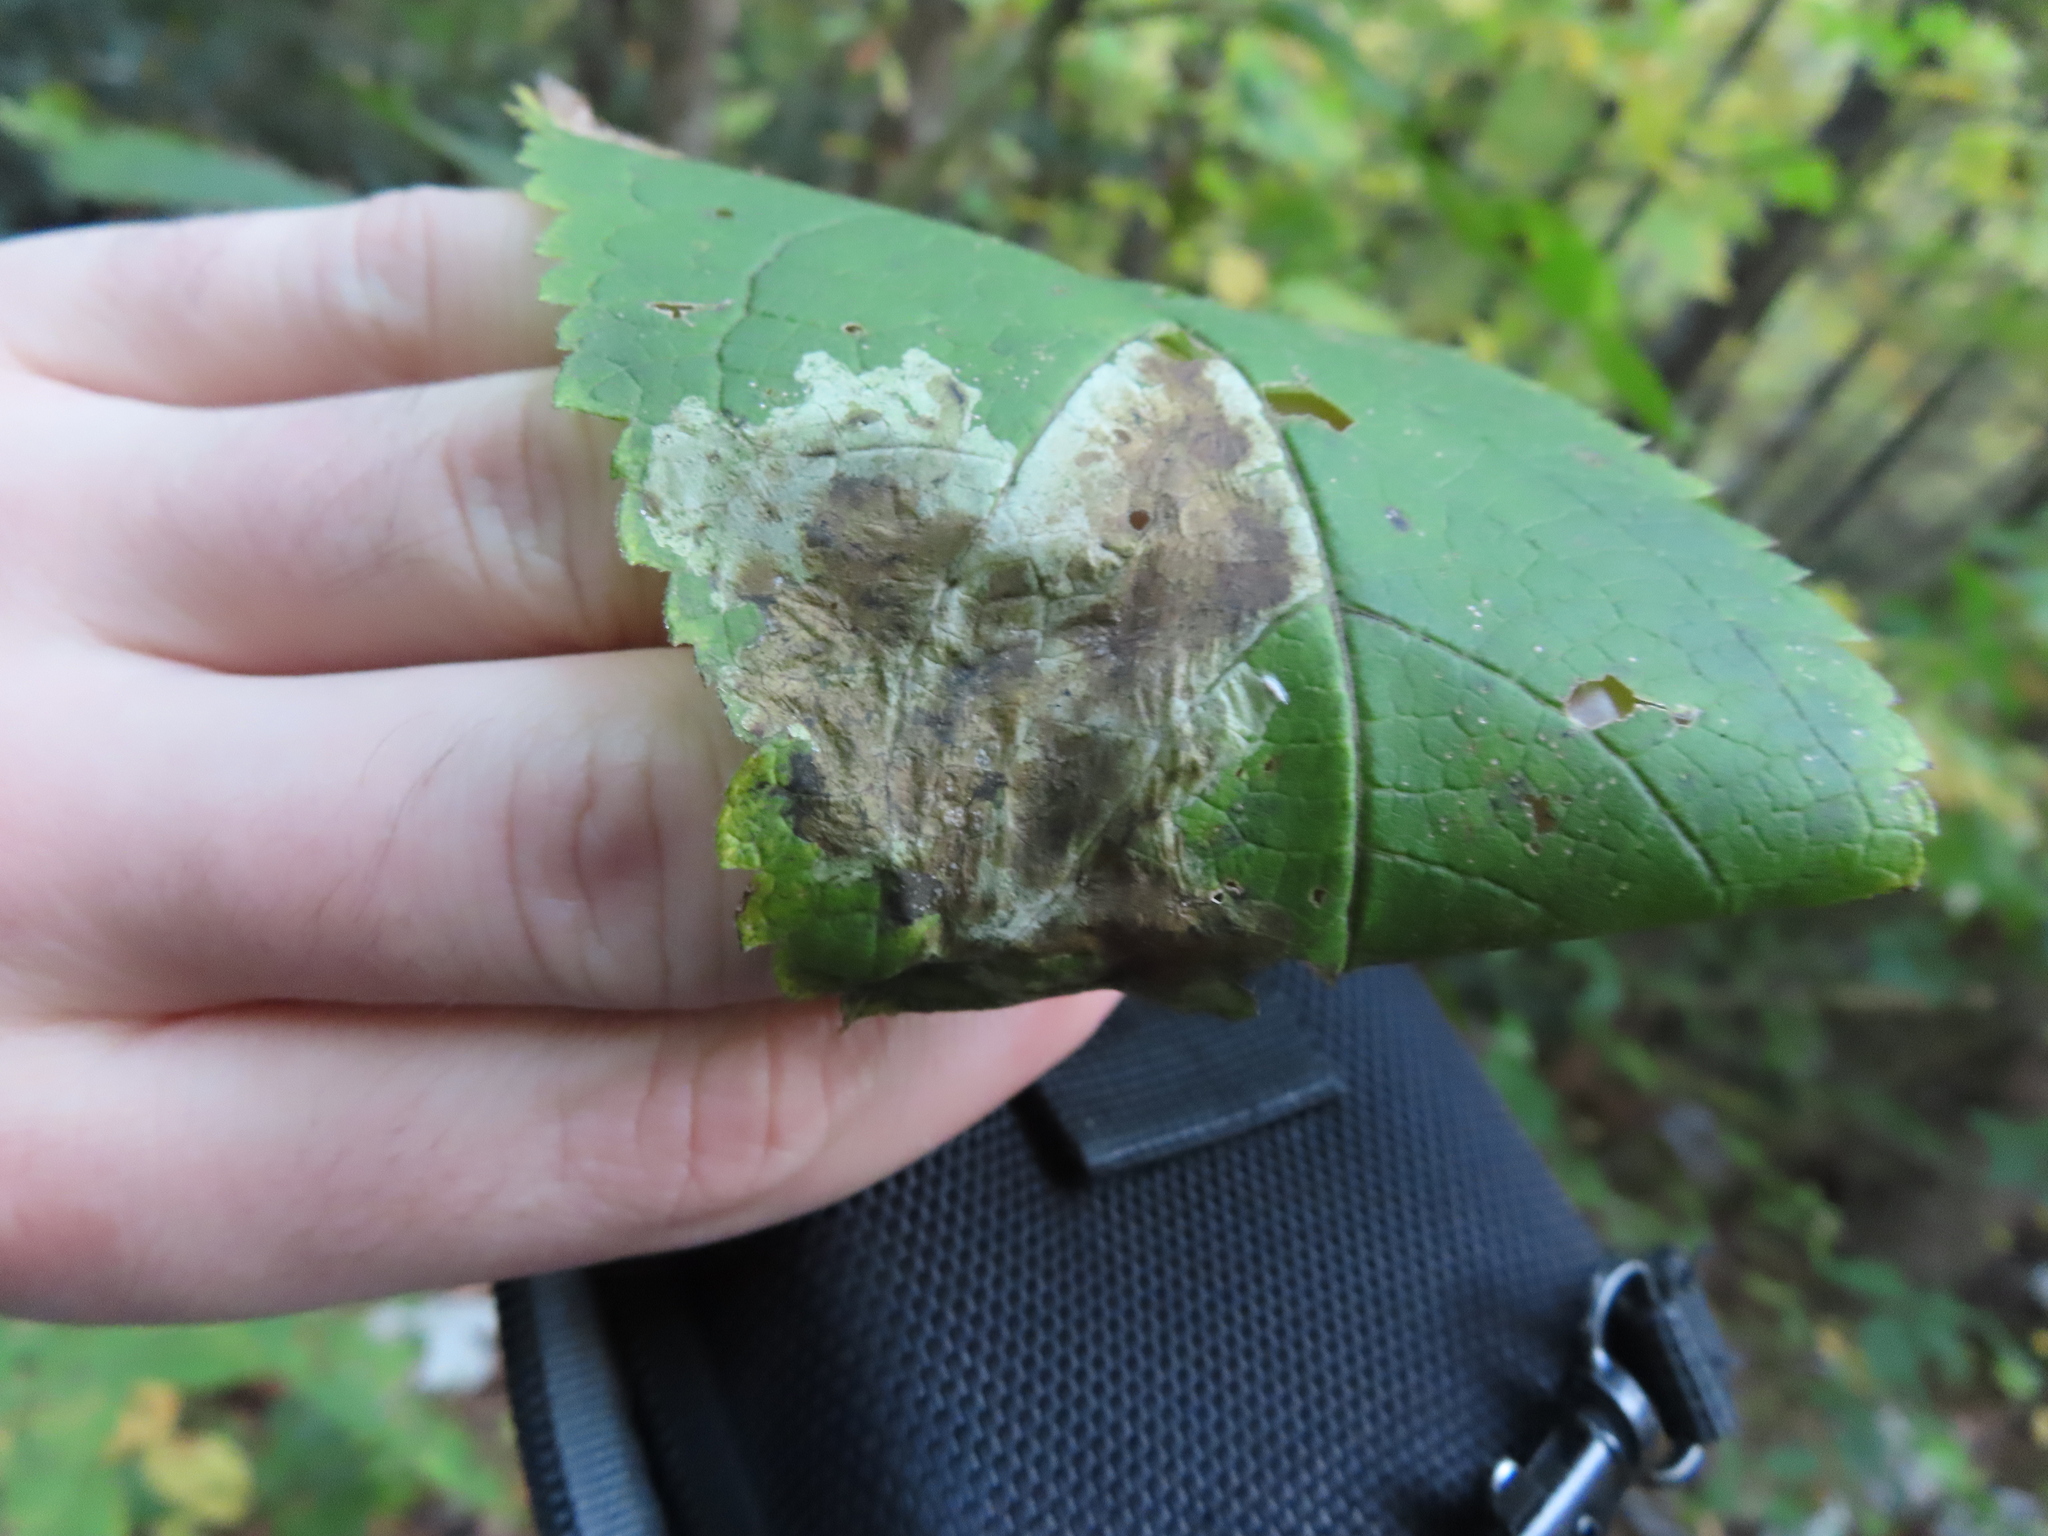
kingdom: Animalia
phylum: Arthropoda
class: Insecta
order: Diptera
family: Agromyzidae
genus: Calycomyza
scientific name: Calycomyza flavinotum
